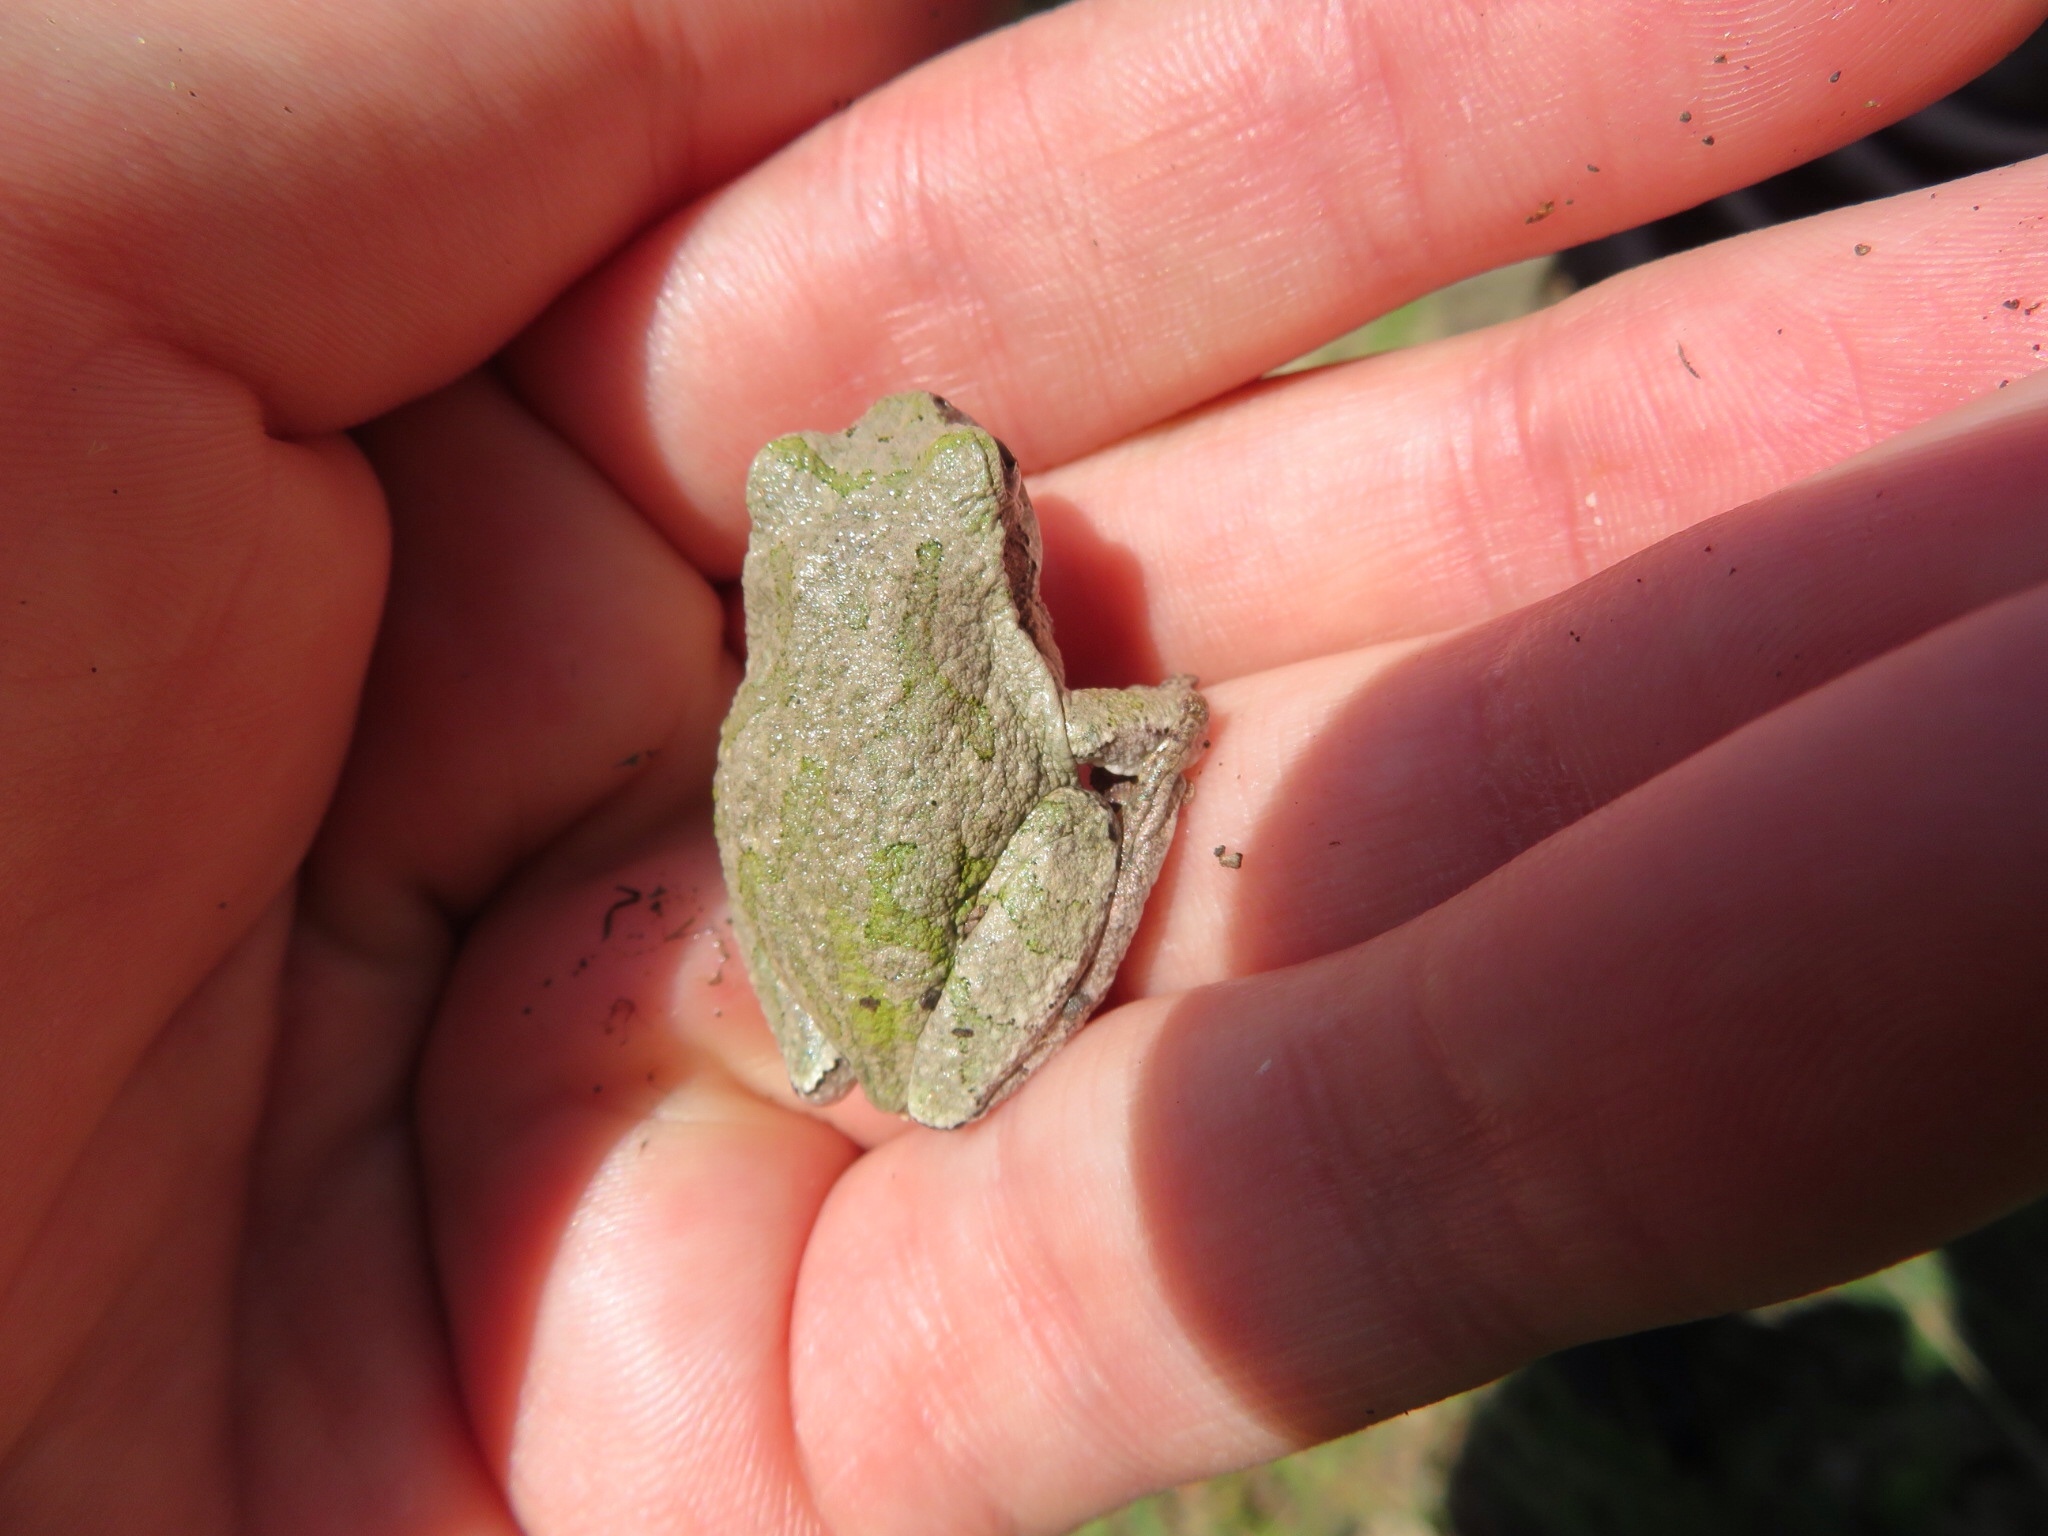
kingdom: Animalia
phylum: Chordata
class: Amphibia
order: Anura
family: Hylidae
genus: Hyla
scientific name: Hyla
